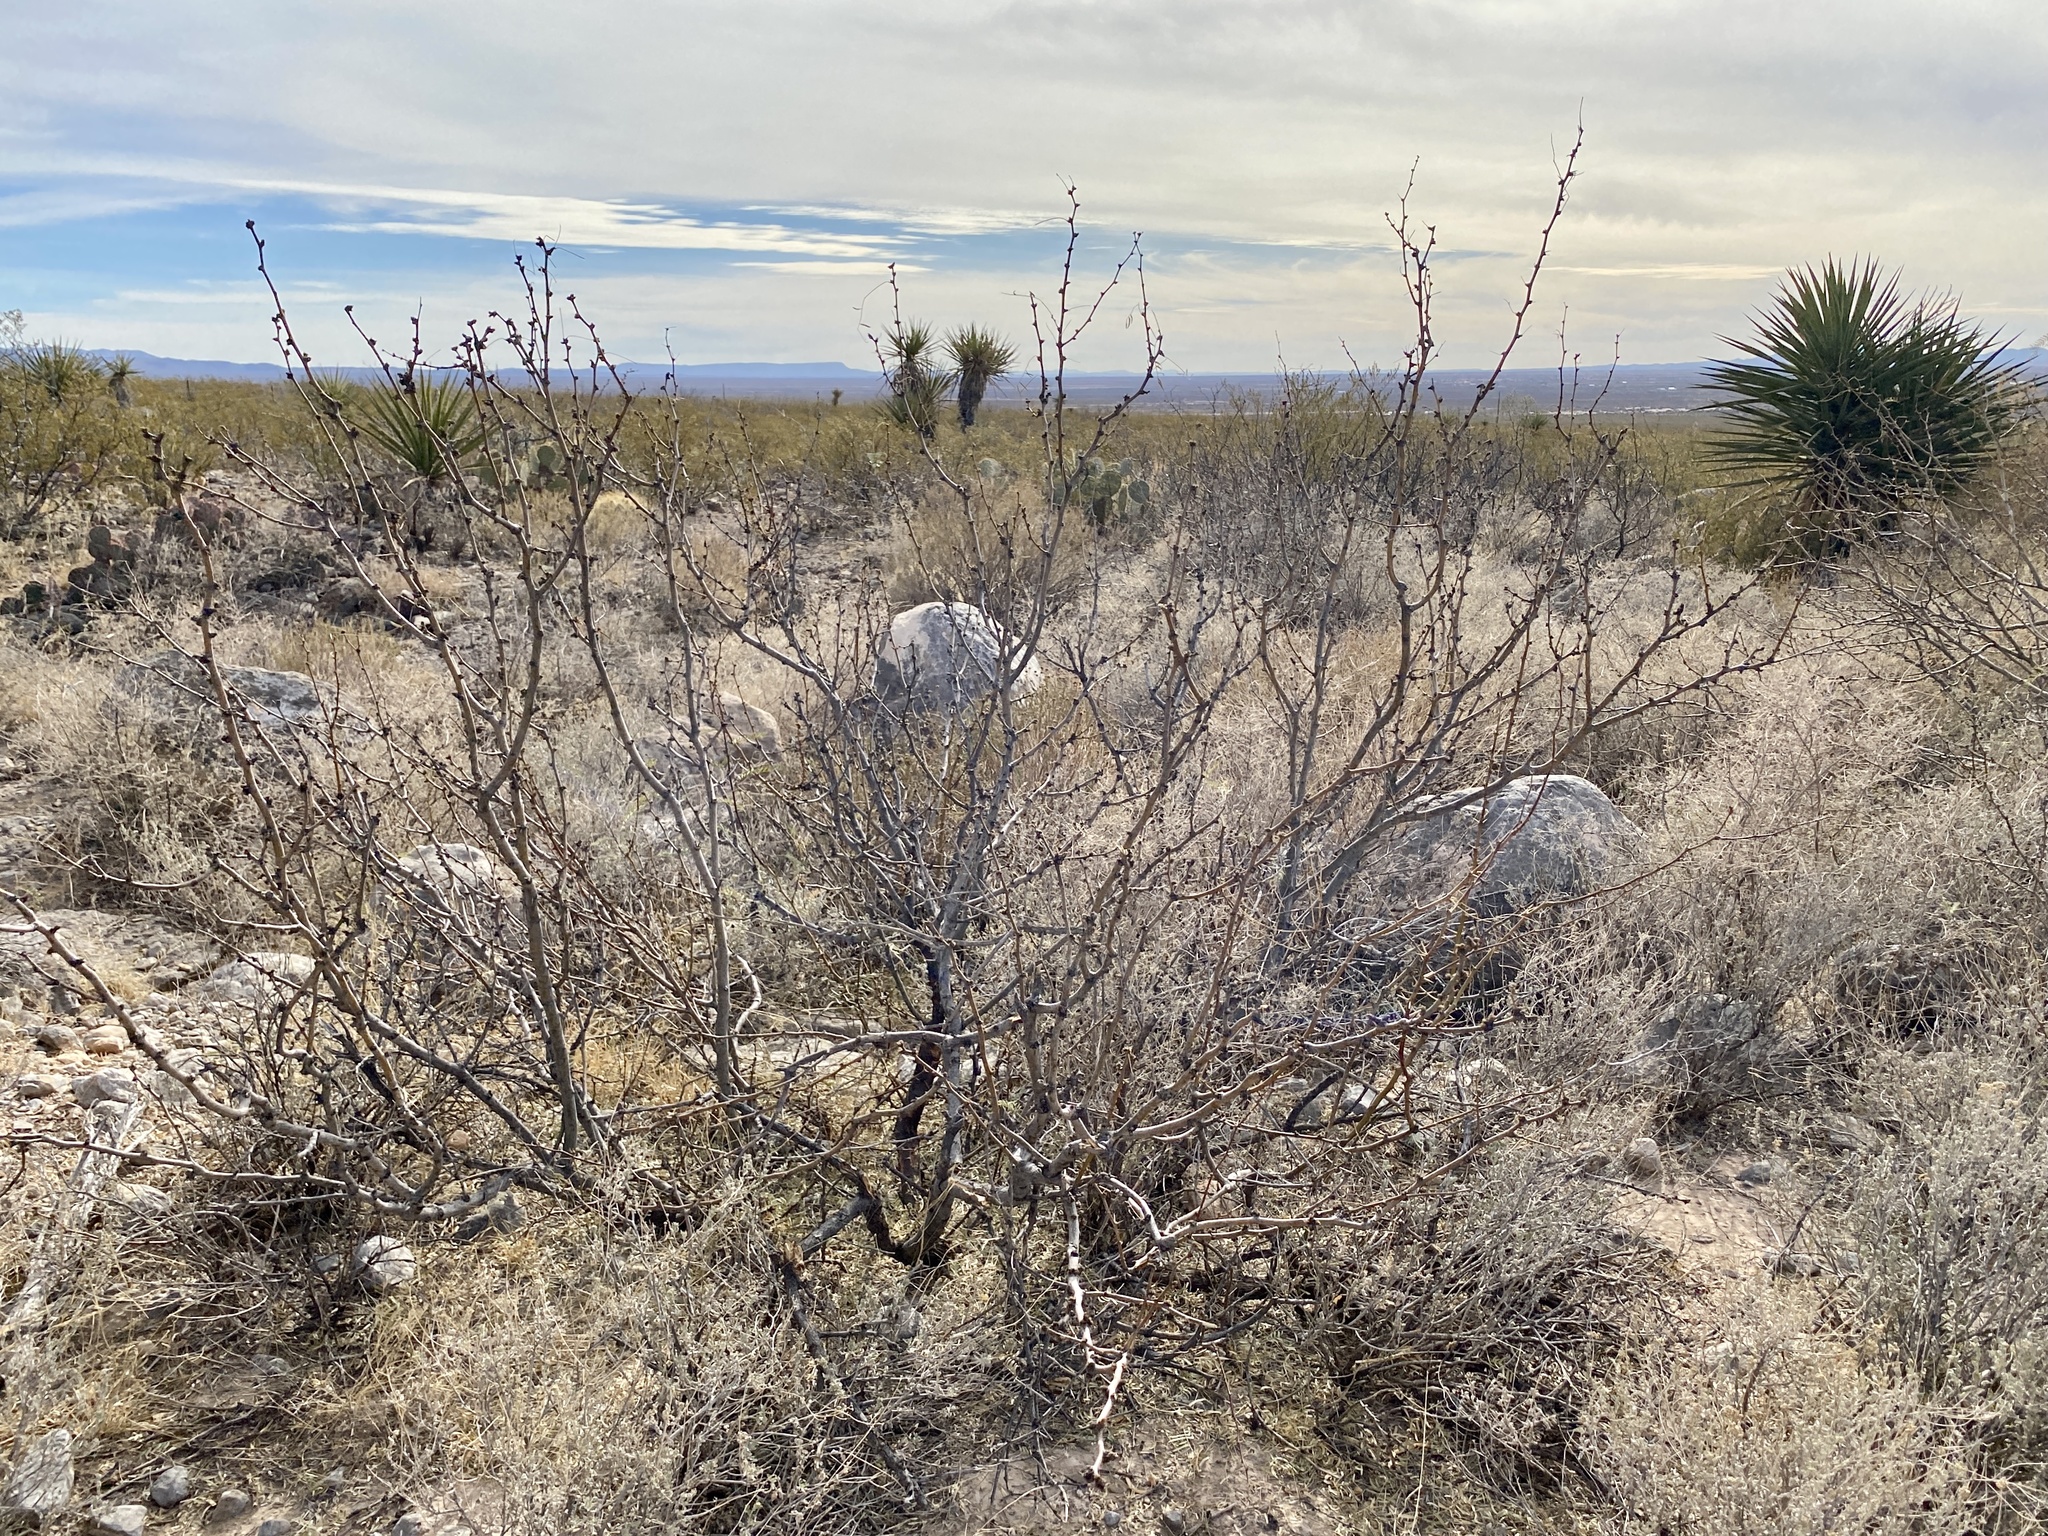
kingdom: Plantae
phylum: Tracheophyta
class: Magnoliopsida
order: Fabales
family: Fabaceae
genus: Prosopis
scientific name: Prosopis glandulosa
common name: Honey mesquite
